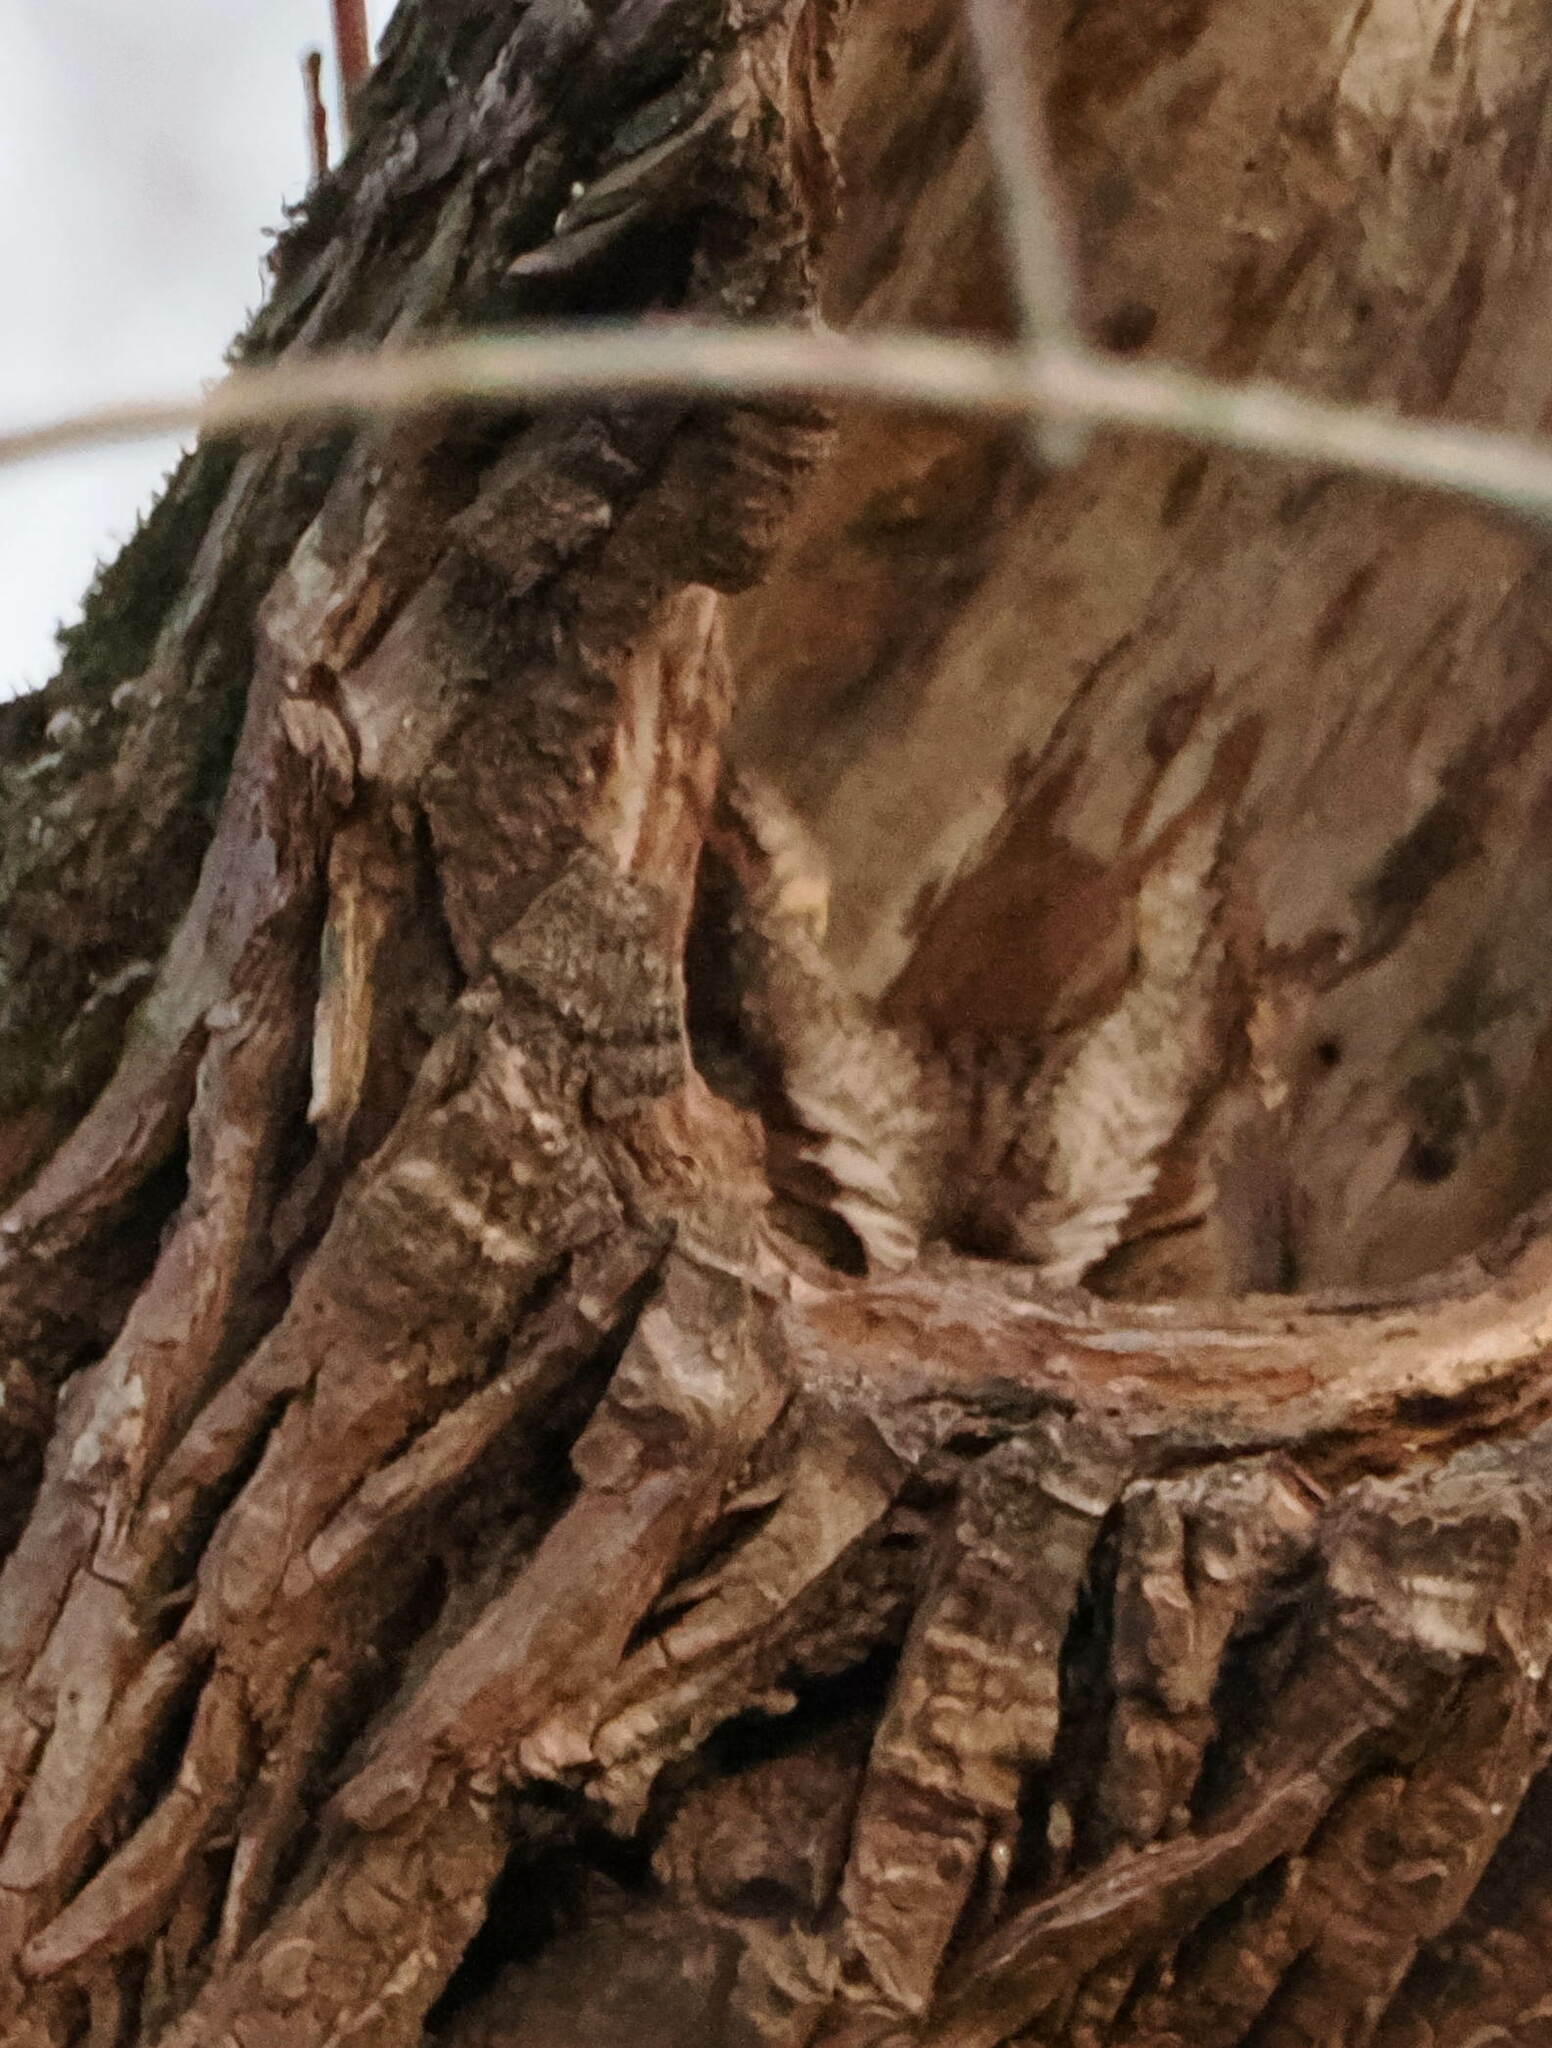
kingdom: Animalia
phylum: Chordata
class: Aves
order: Strigiformes
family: Strigidae
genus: Megascops
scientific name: Megascops asio
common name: Eastern screech-owl
